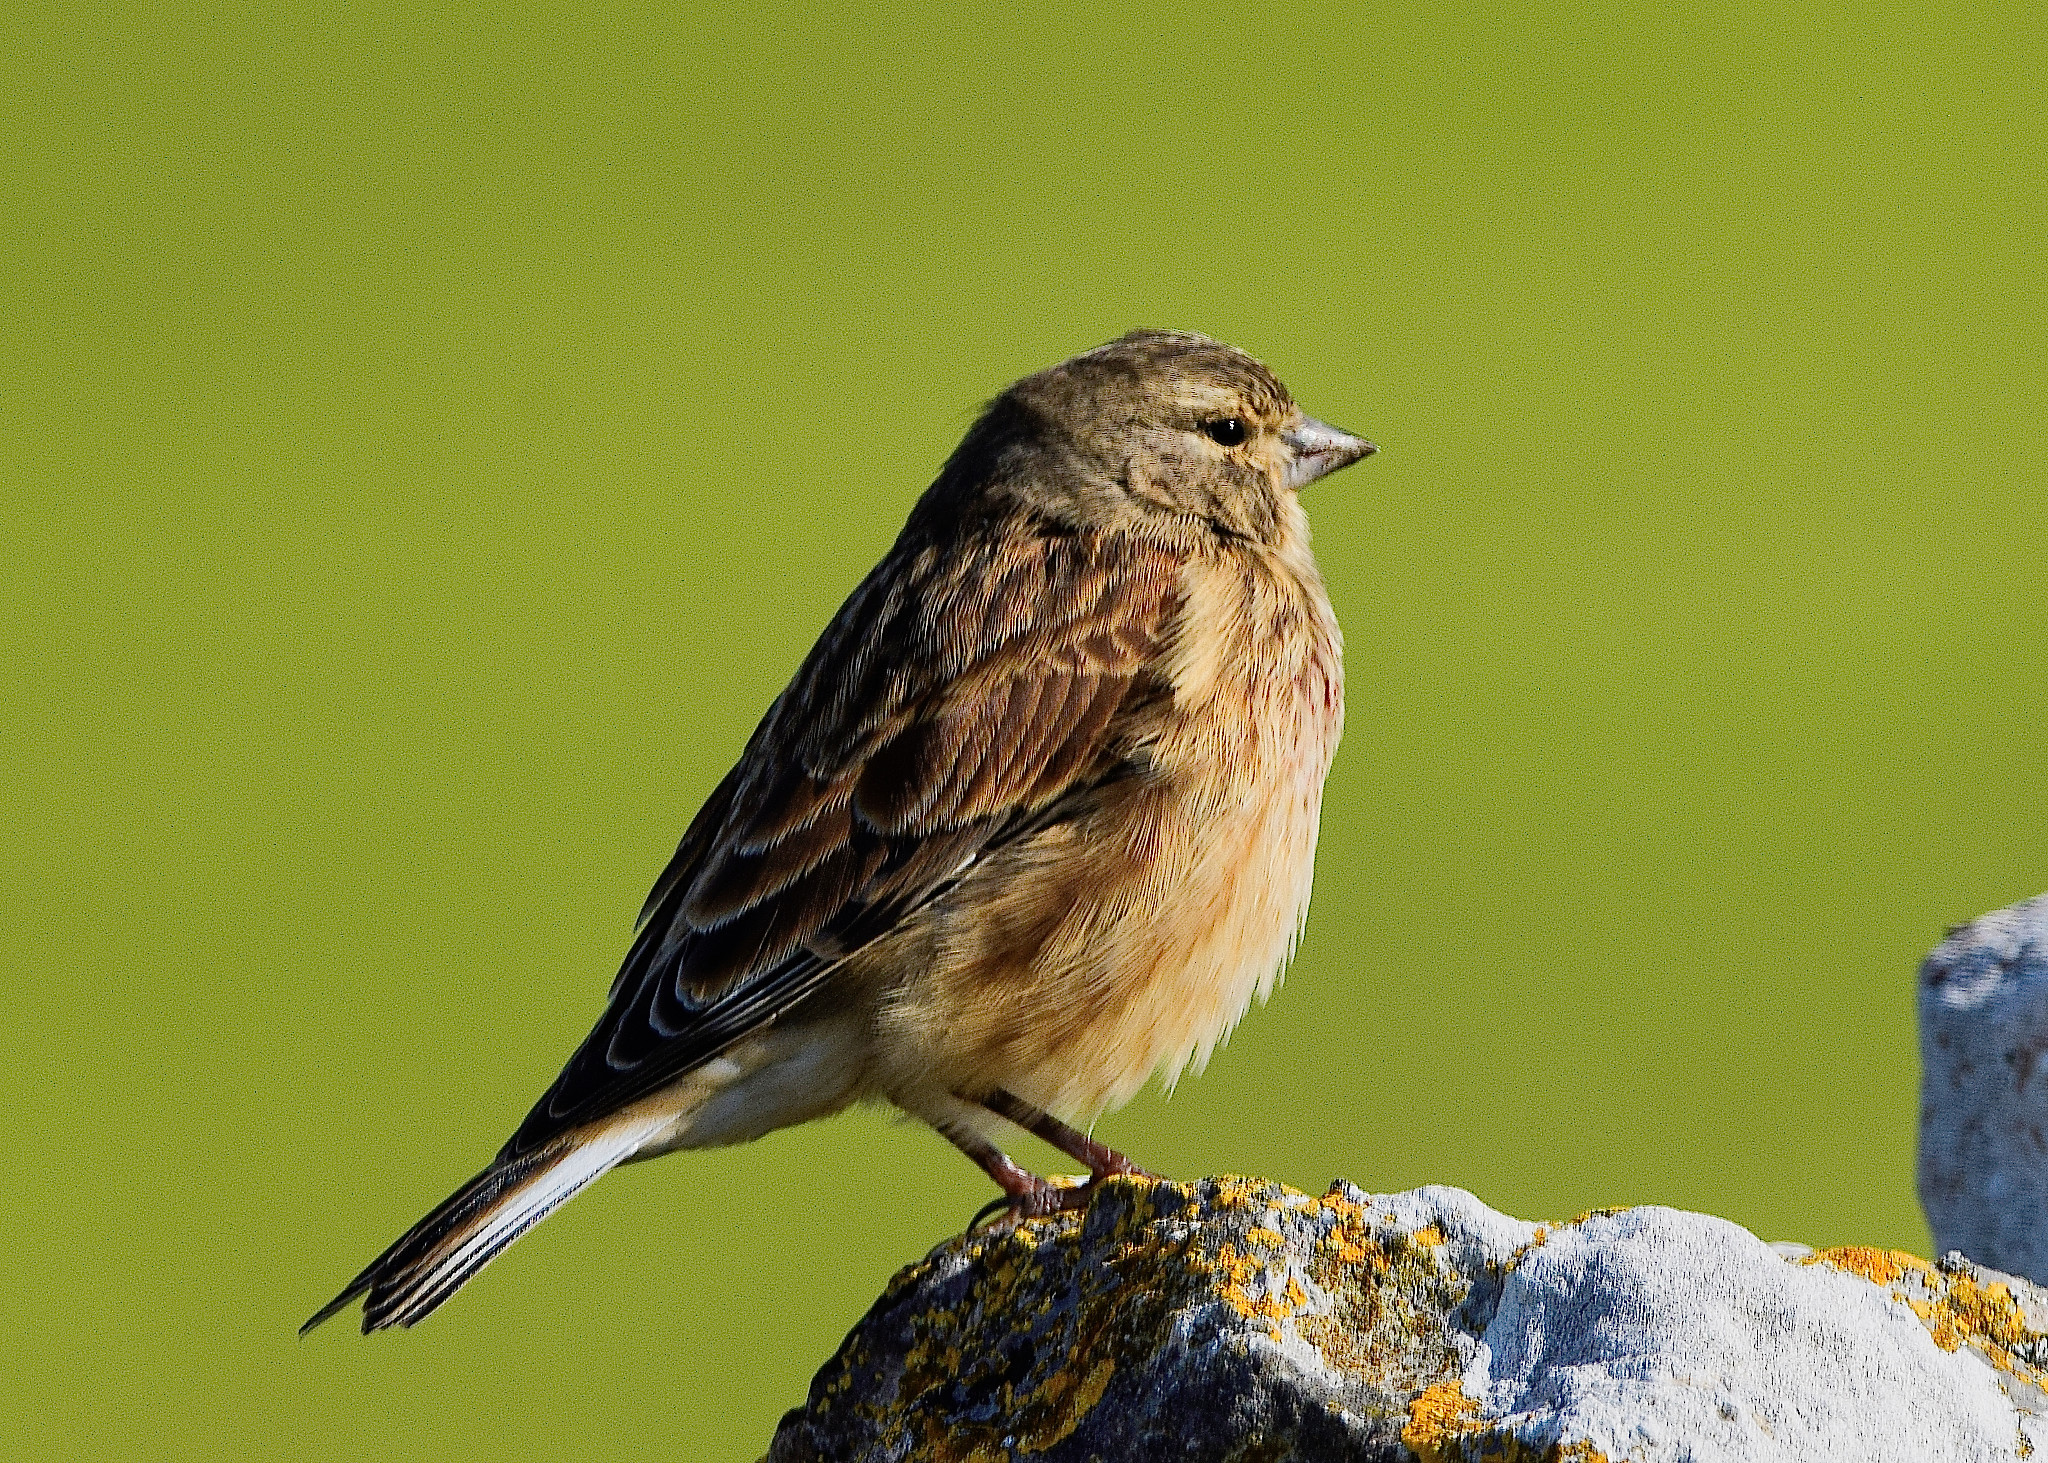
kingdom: Animalia
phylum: Chordata
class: Aves
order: Passeriformes
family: Fringillidae
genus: Linaria
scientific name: Linaria cannabina
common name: Common linnet
